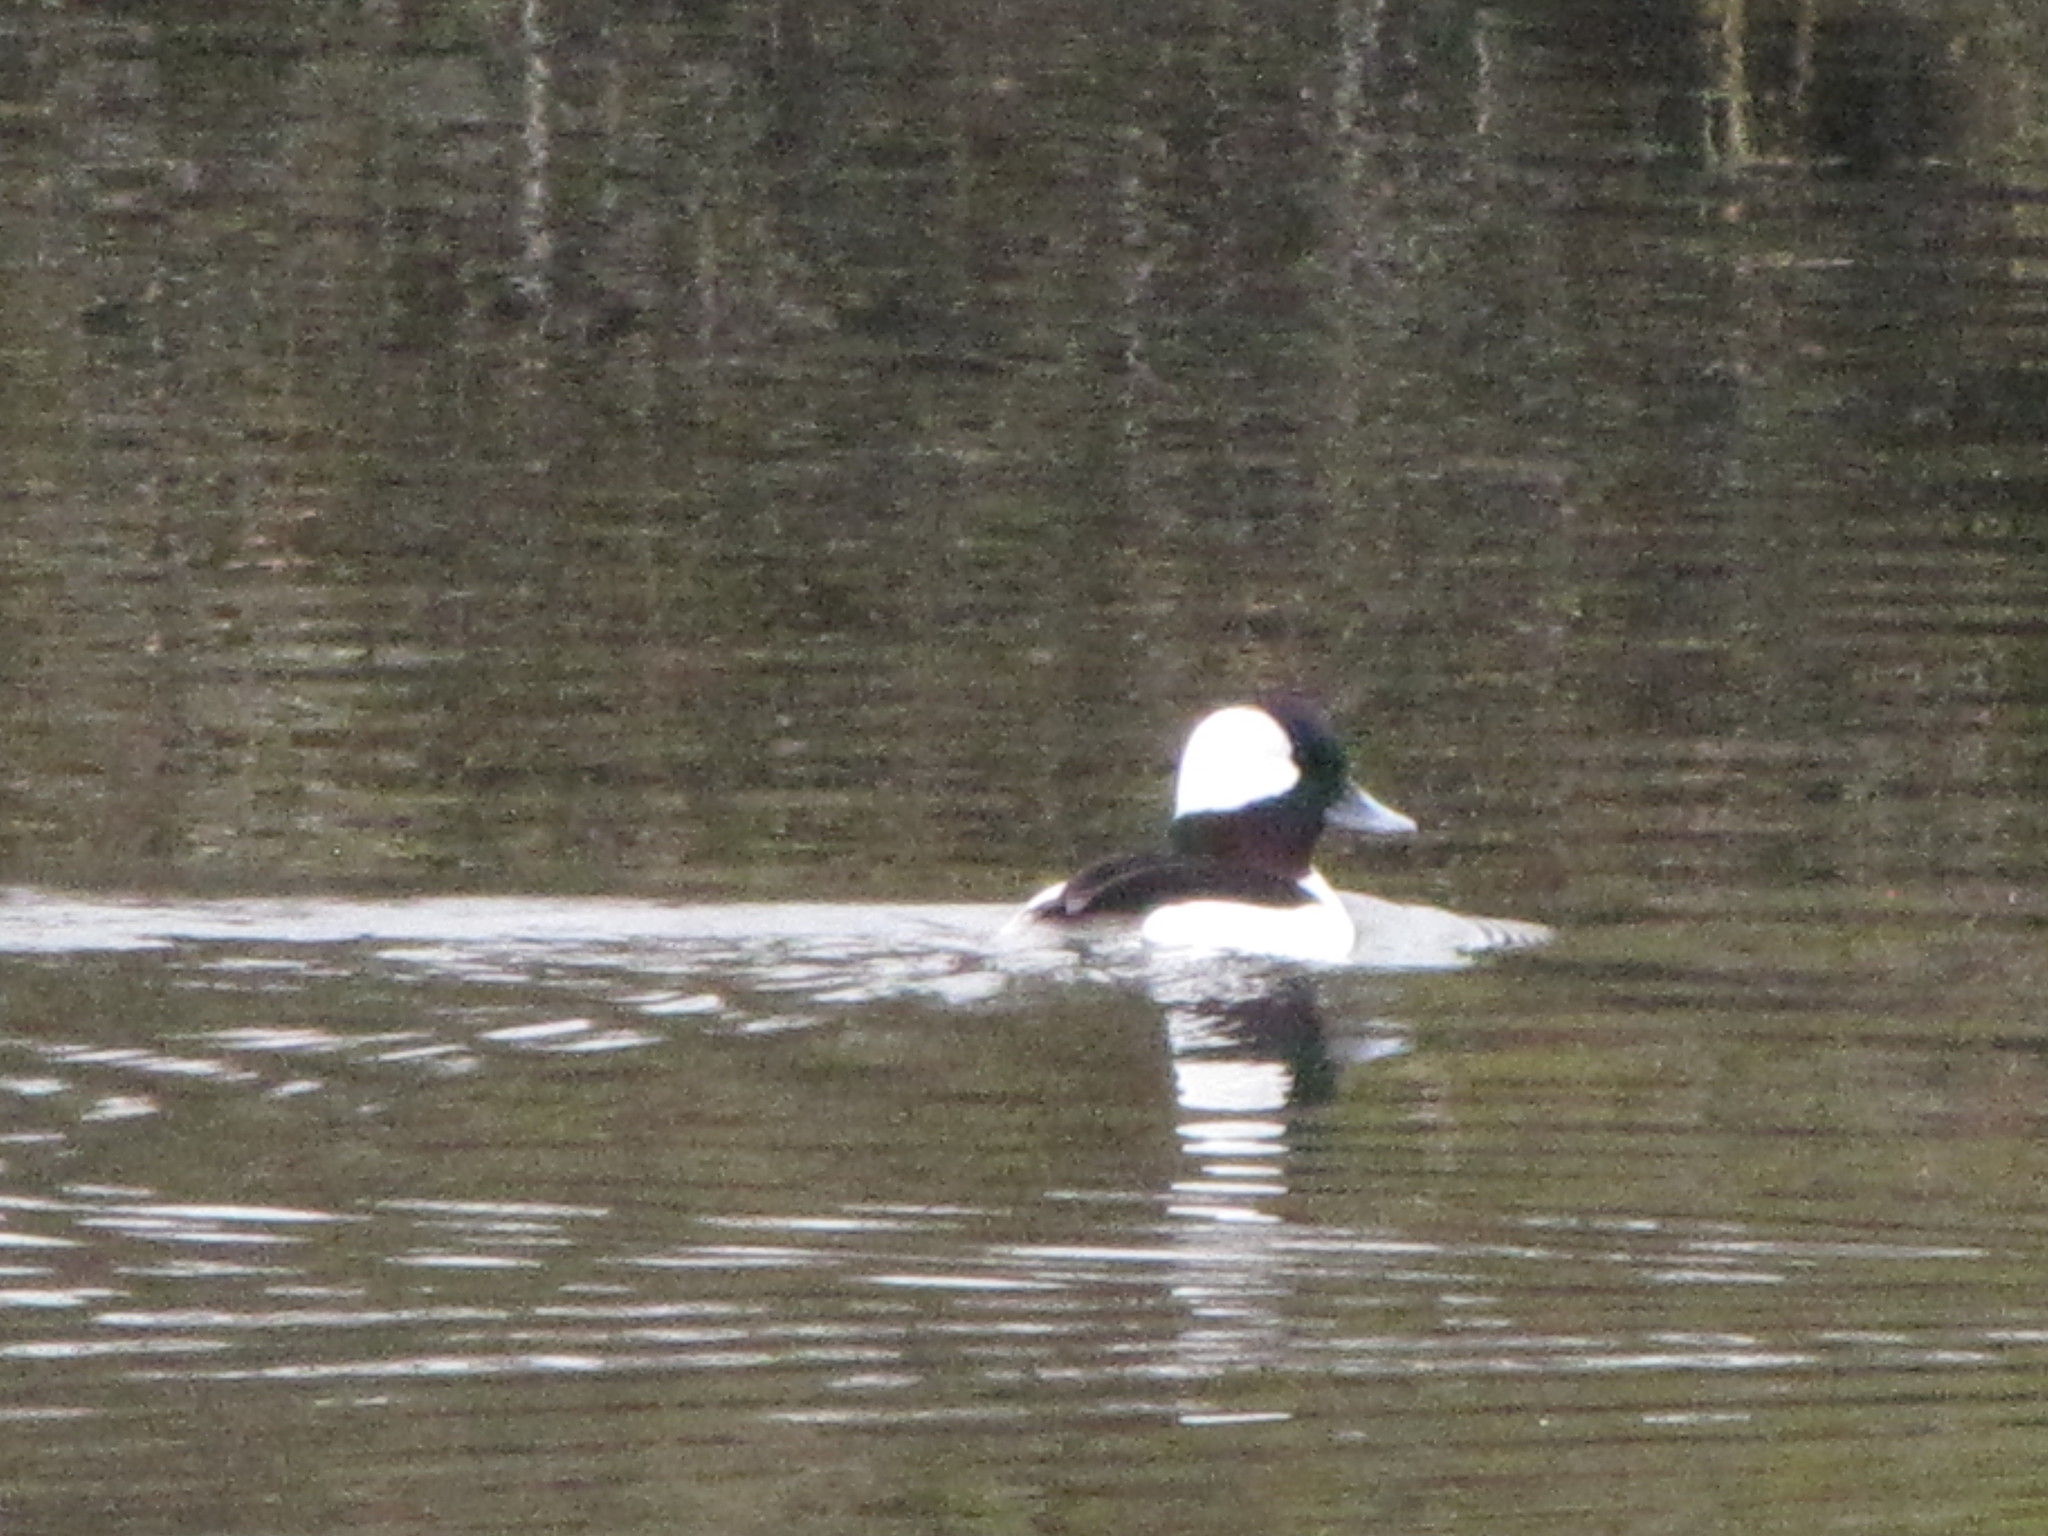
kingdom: Animalia
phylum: Chordata
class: Aves
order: Anseriformes
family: Anatidae
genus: Bucephala
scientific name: Bucephala albeola
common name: Bufflehead
